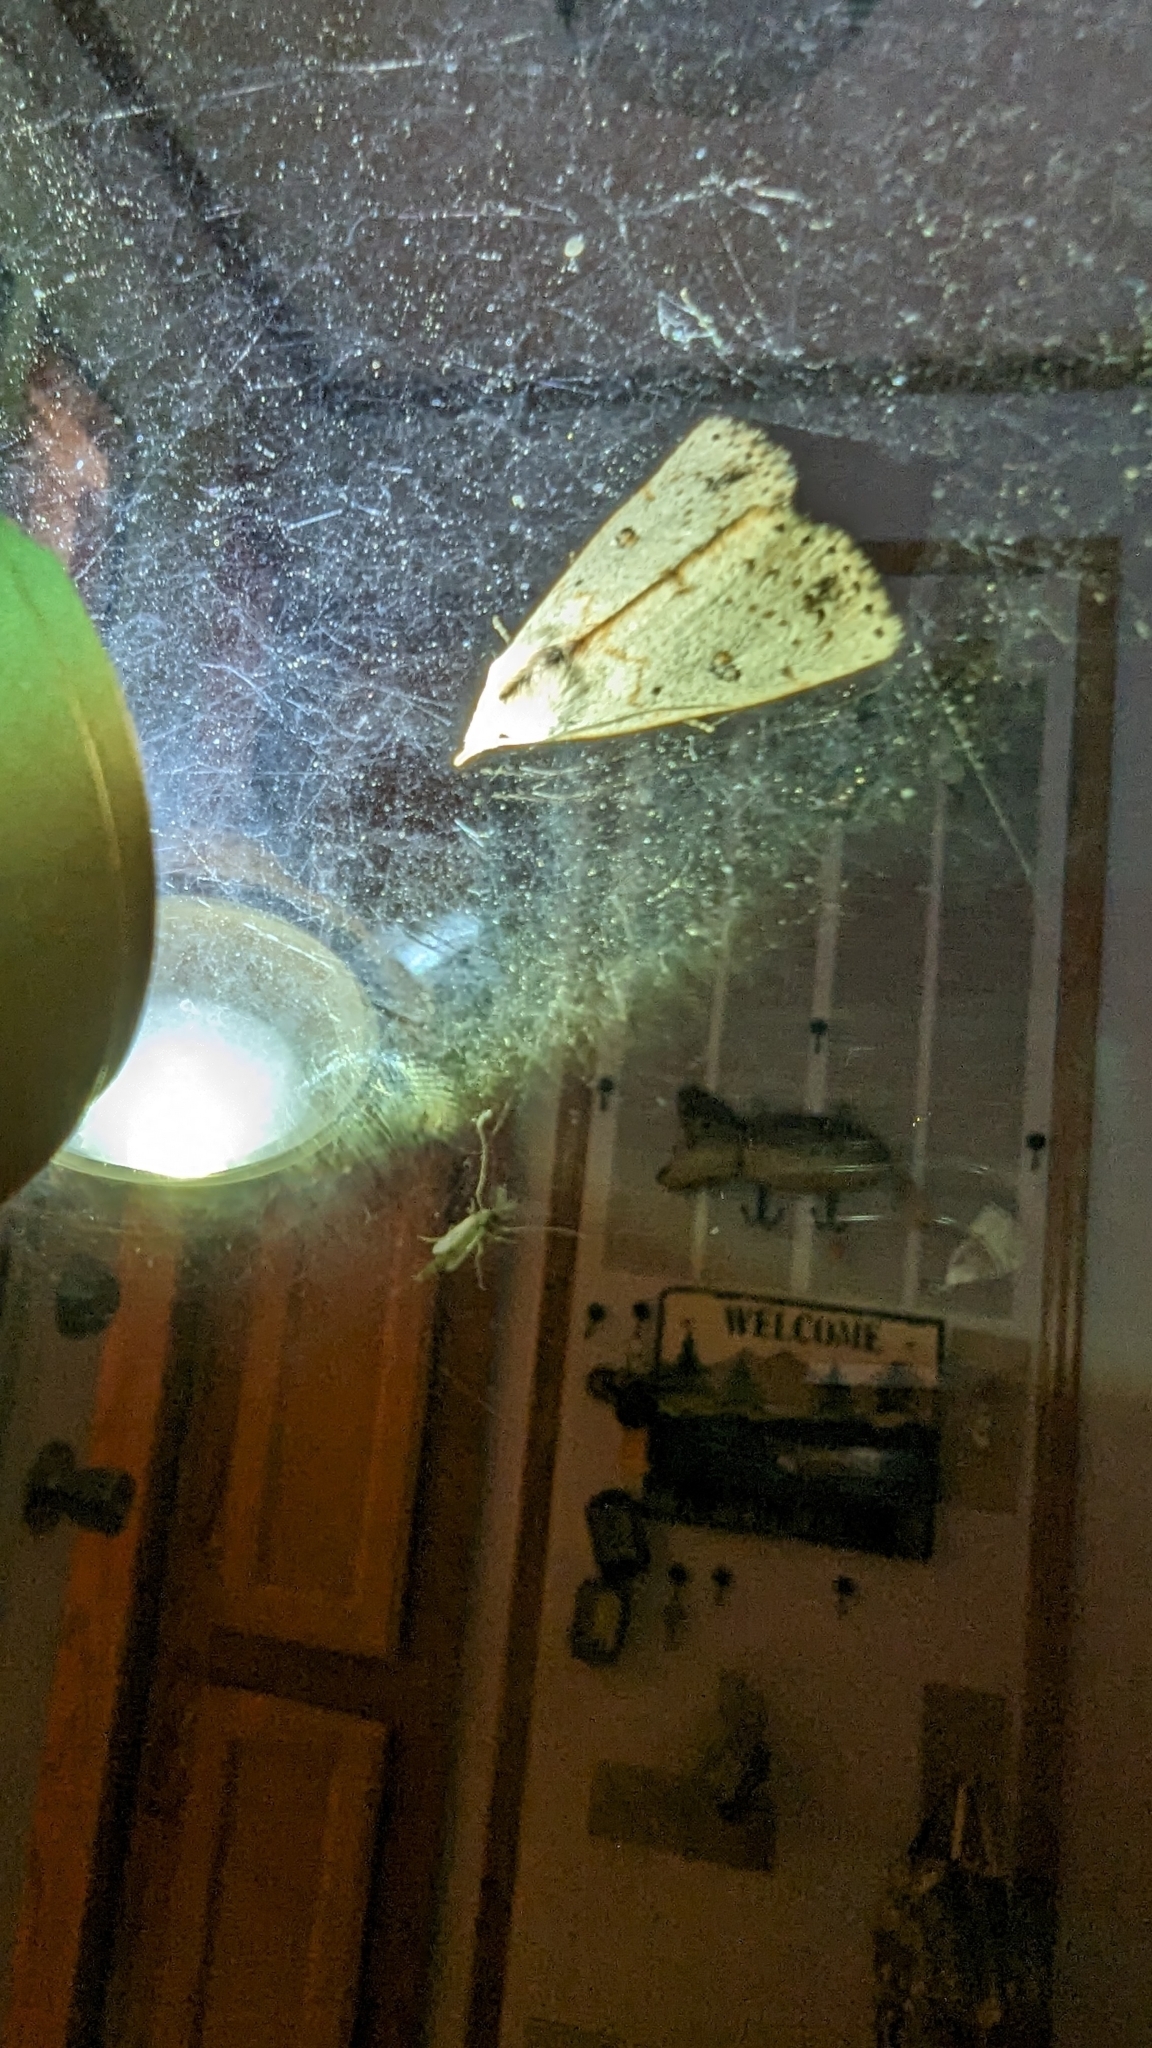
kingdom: Animalia
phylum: Arthropoda
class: Insecta
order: Lepidoptera
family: Erebidae
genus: Scolecocampa
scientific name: Scolecocampa liburna
